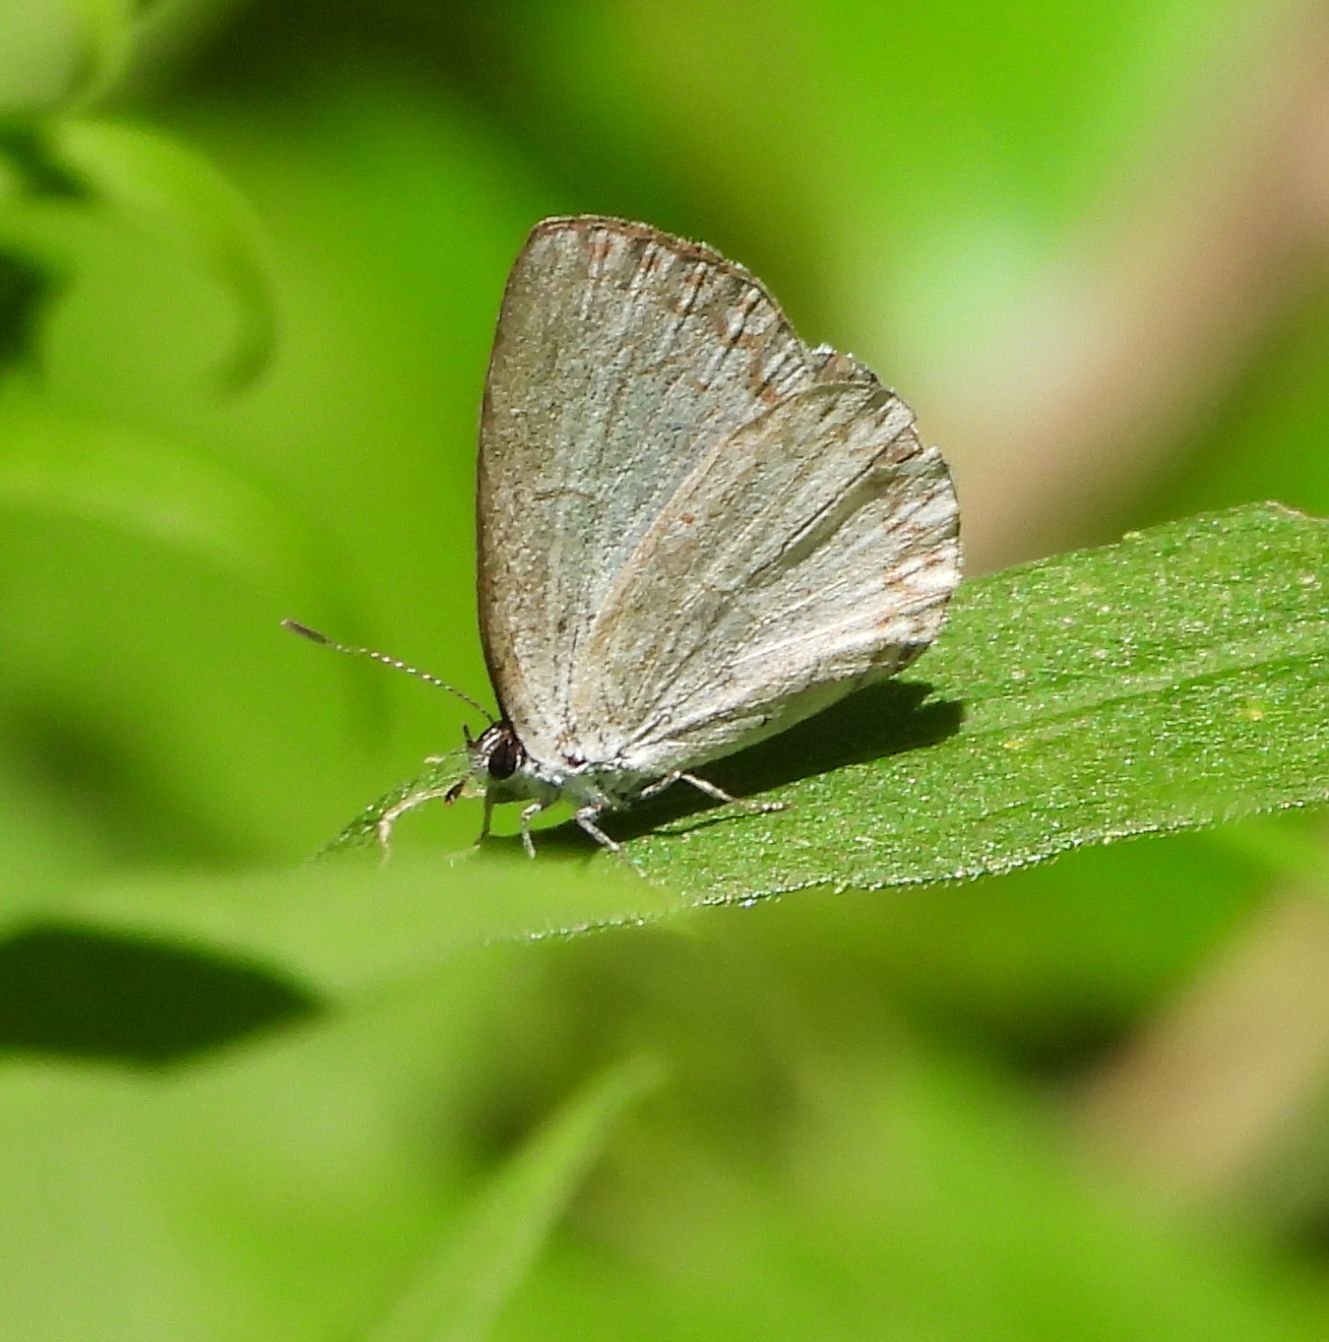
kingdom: Animalia
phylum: Arthropoda
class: Insecta
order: Lepidoptera
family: Lycaenidae
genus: Celastrina
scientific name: Celastrina lucia
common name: Lucia azure
